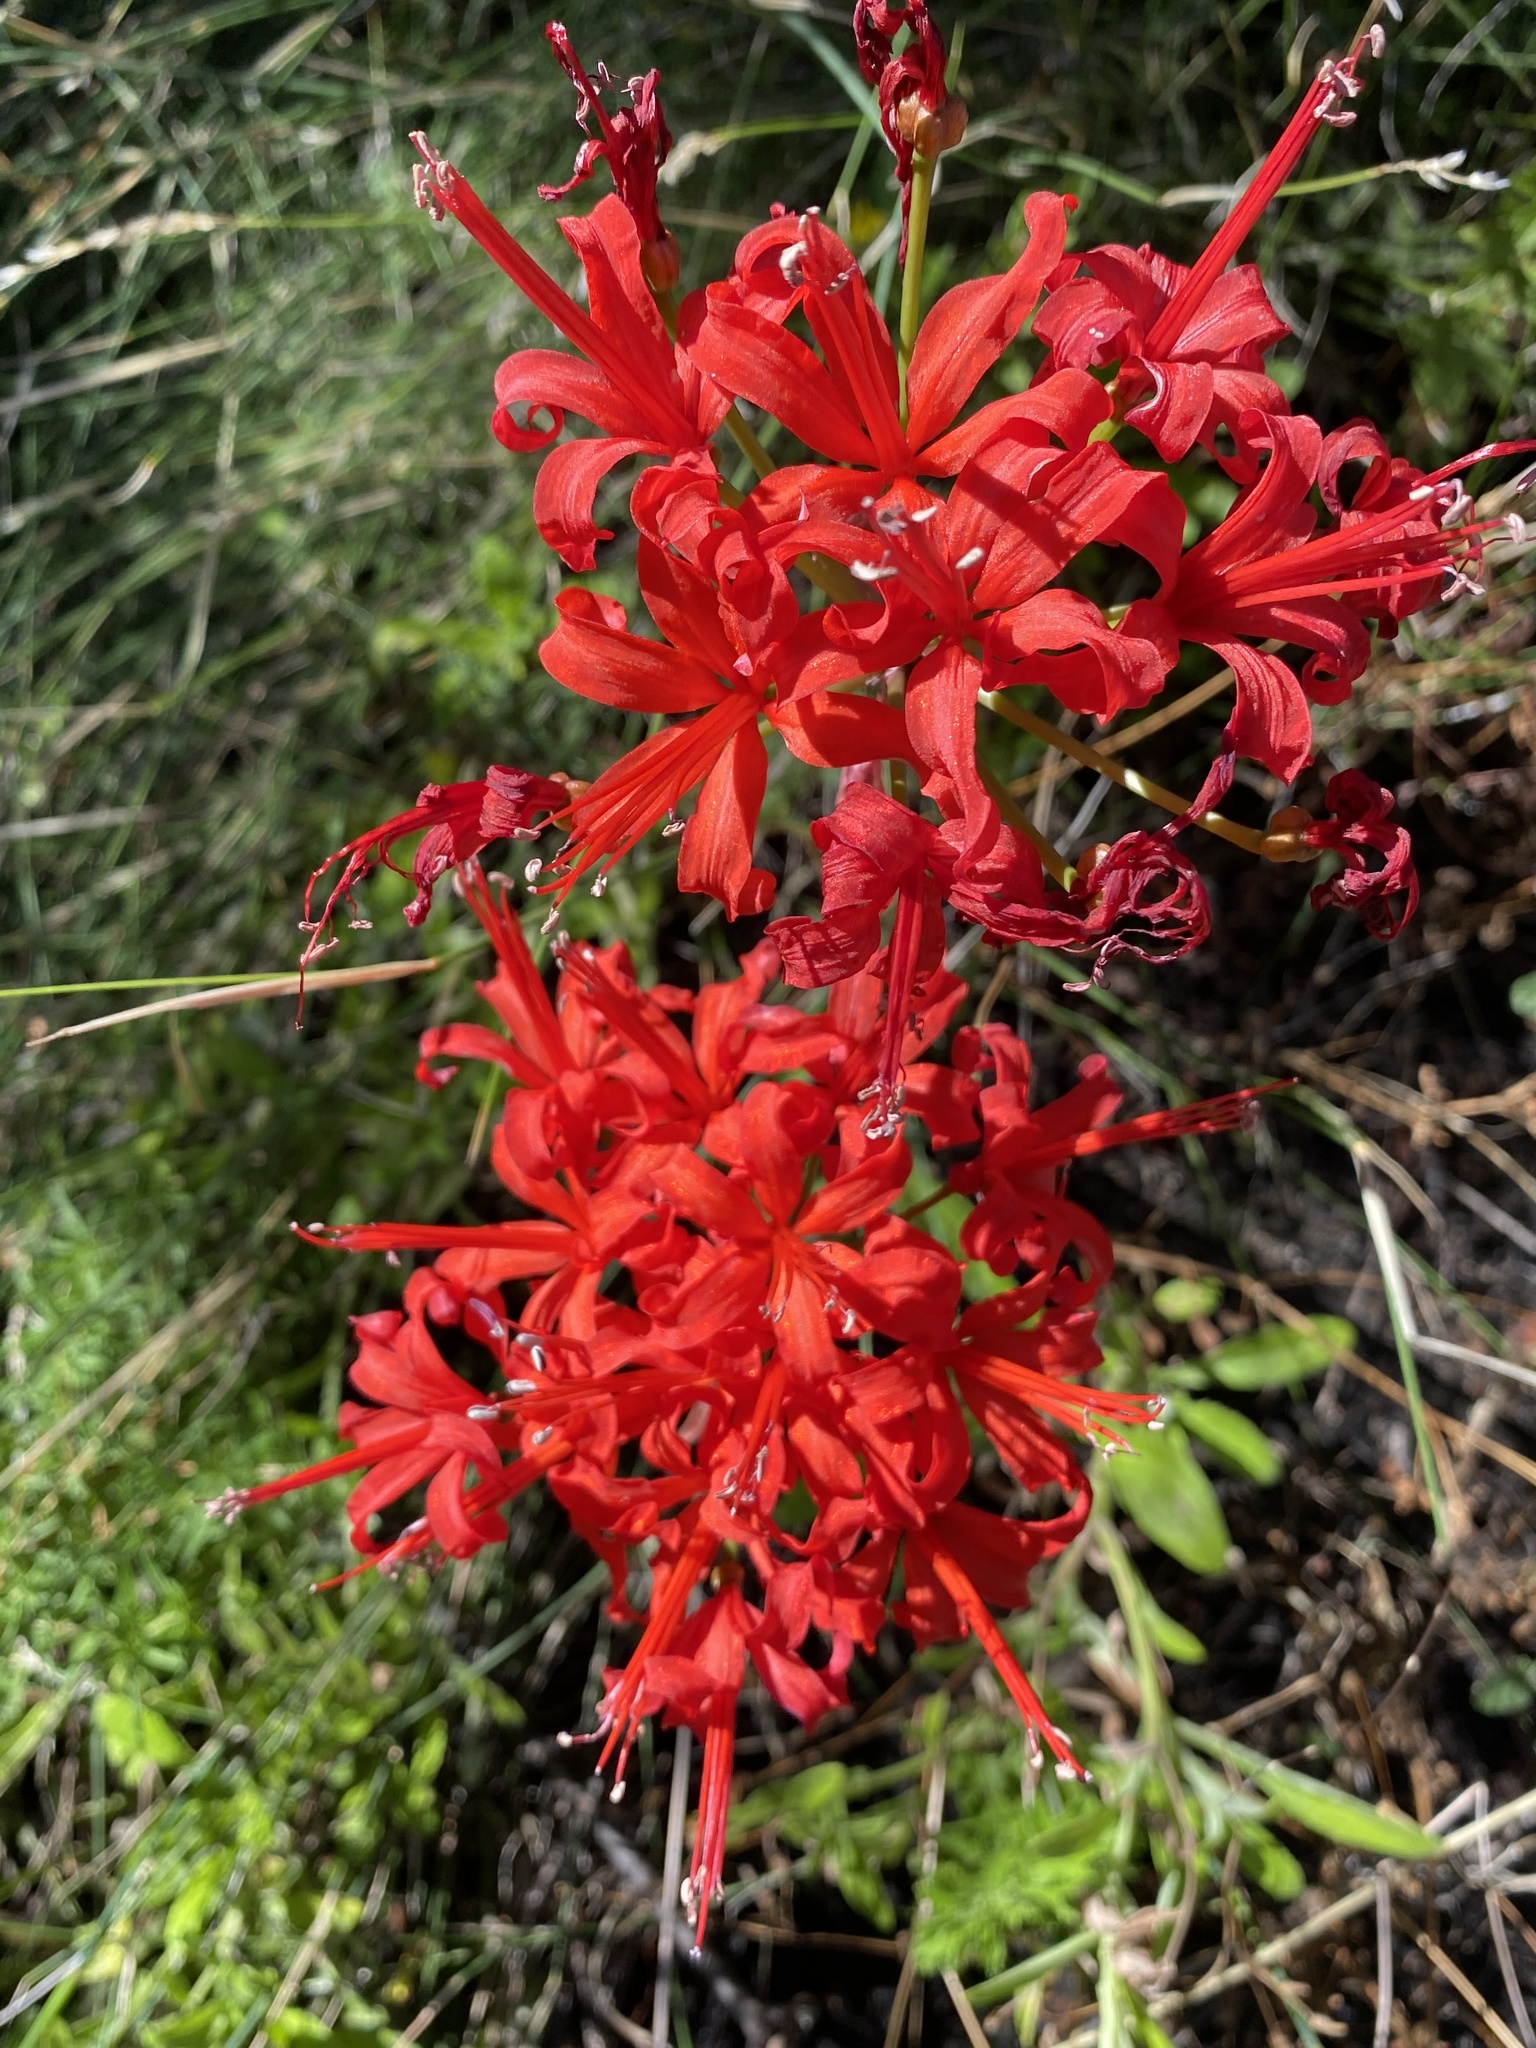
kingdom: Plantae
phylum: Tracheophyta
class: Liliopsida
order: Asparagales
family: Amaryllidaceae
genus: Nerine
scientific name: Nerine sarniensis
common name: Guernsey-lily
